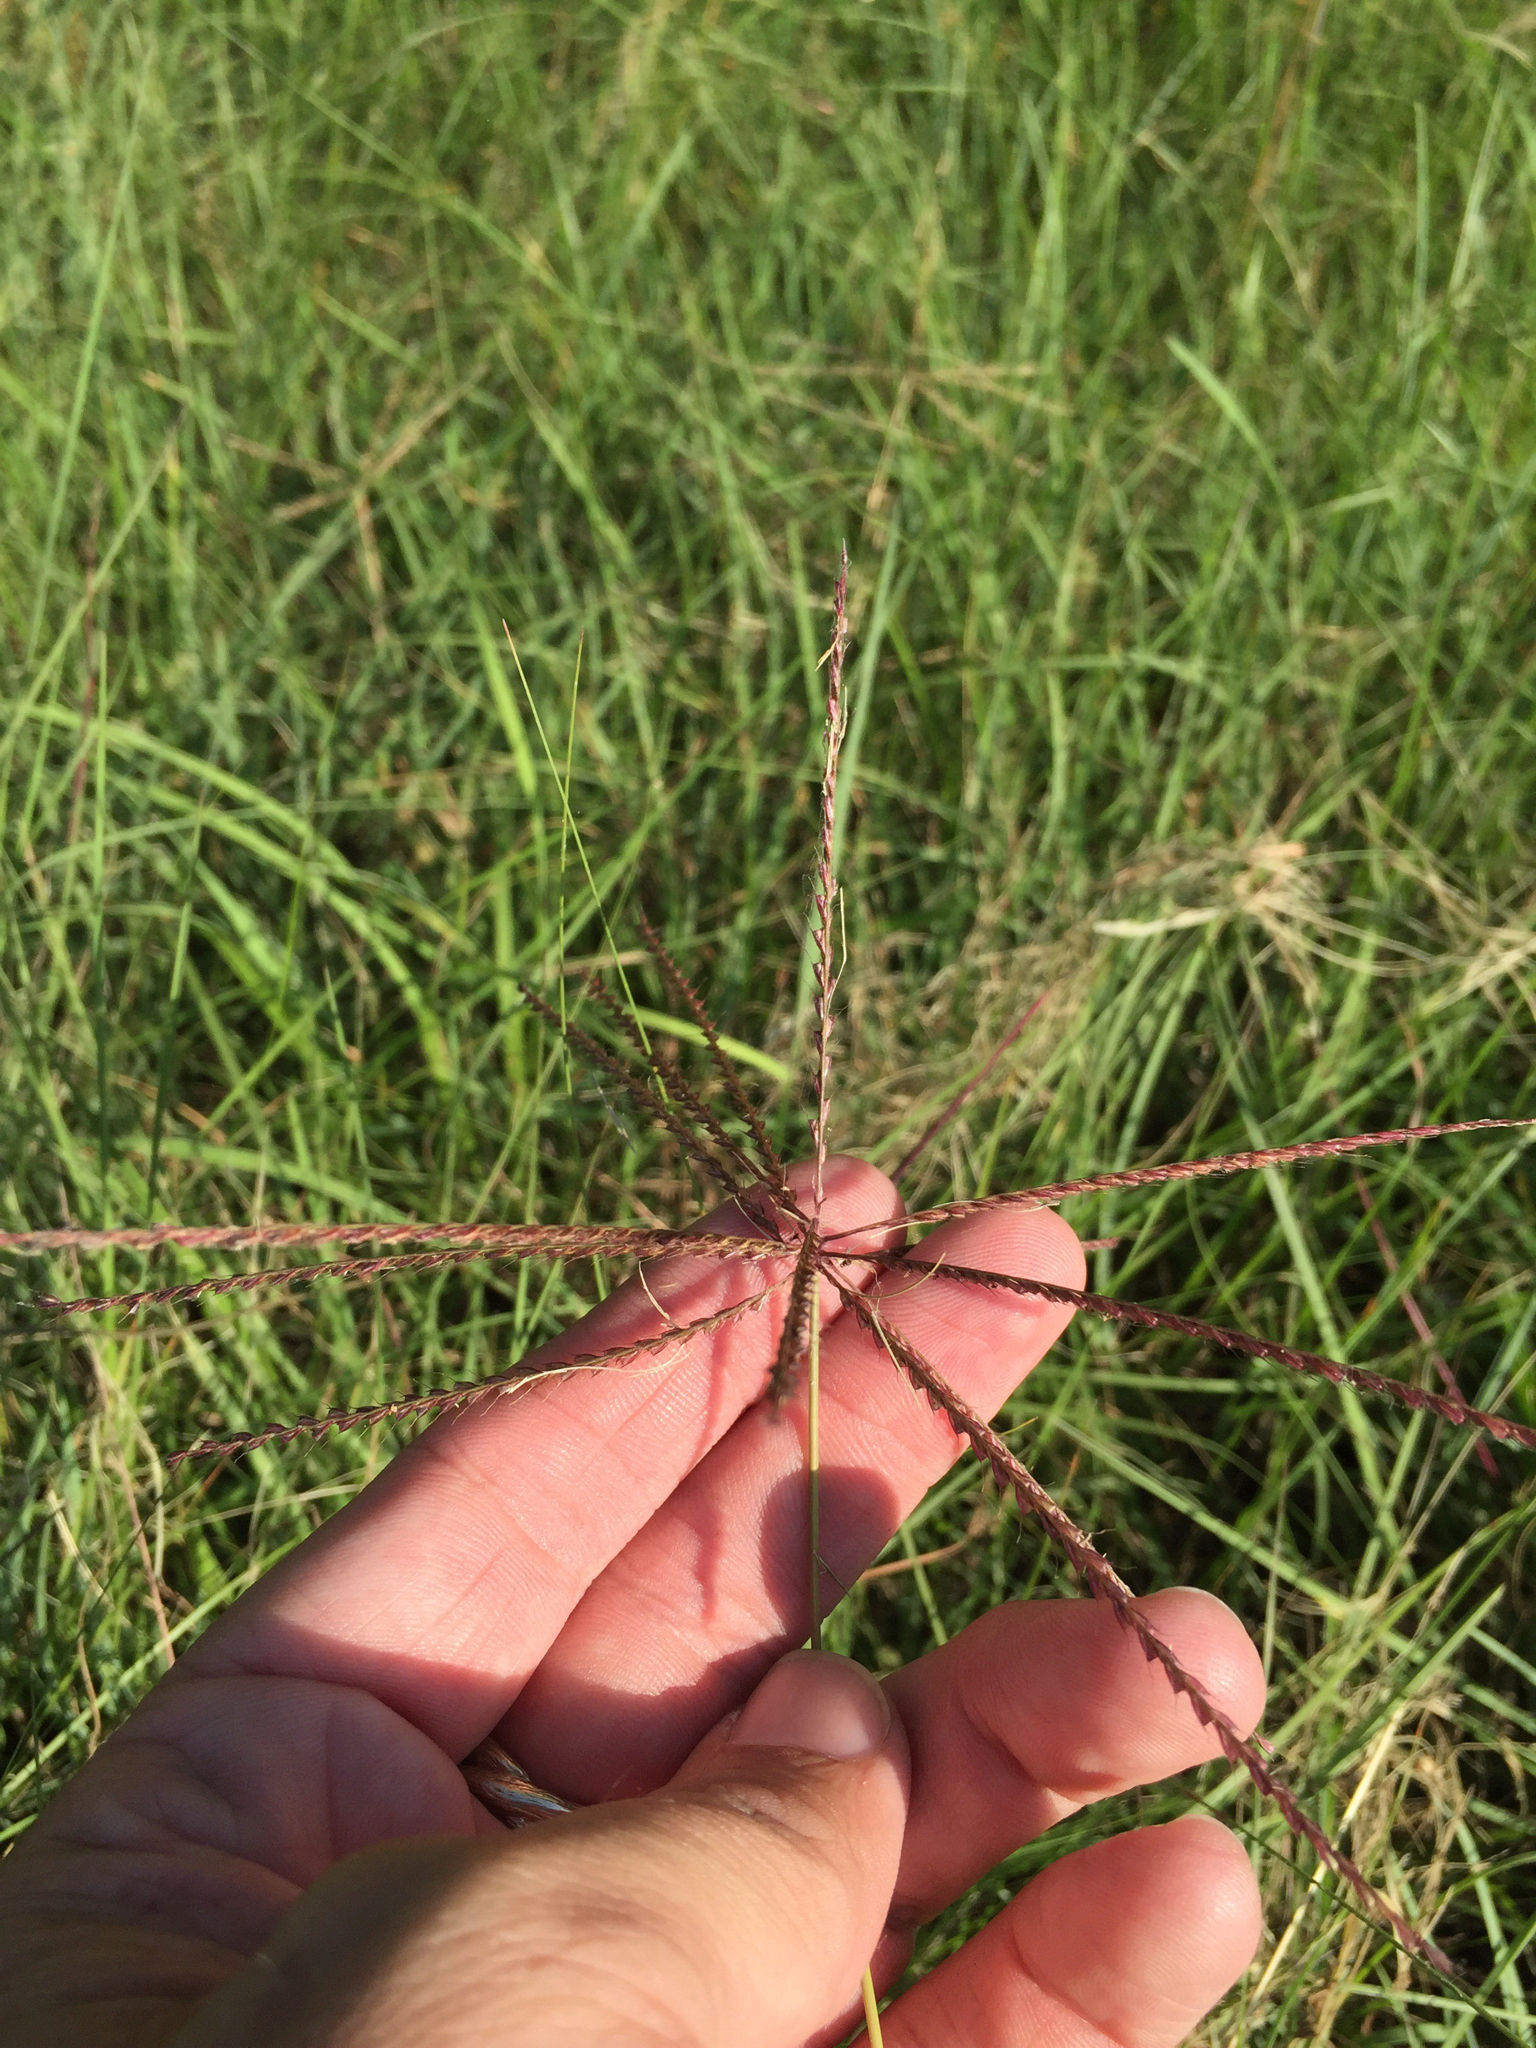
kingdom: Plantae
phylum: Tracheophyta
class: Liliopsida
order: Poales
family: Poaceae
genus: Chloris
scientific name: Chloris verticillata
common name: Tumble windmill grass
